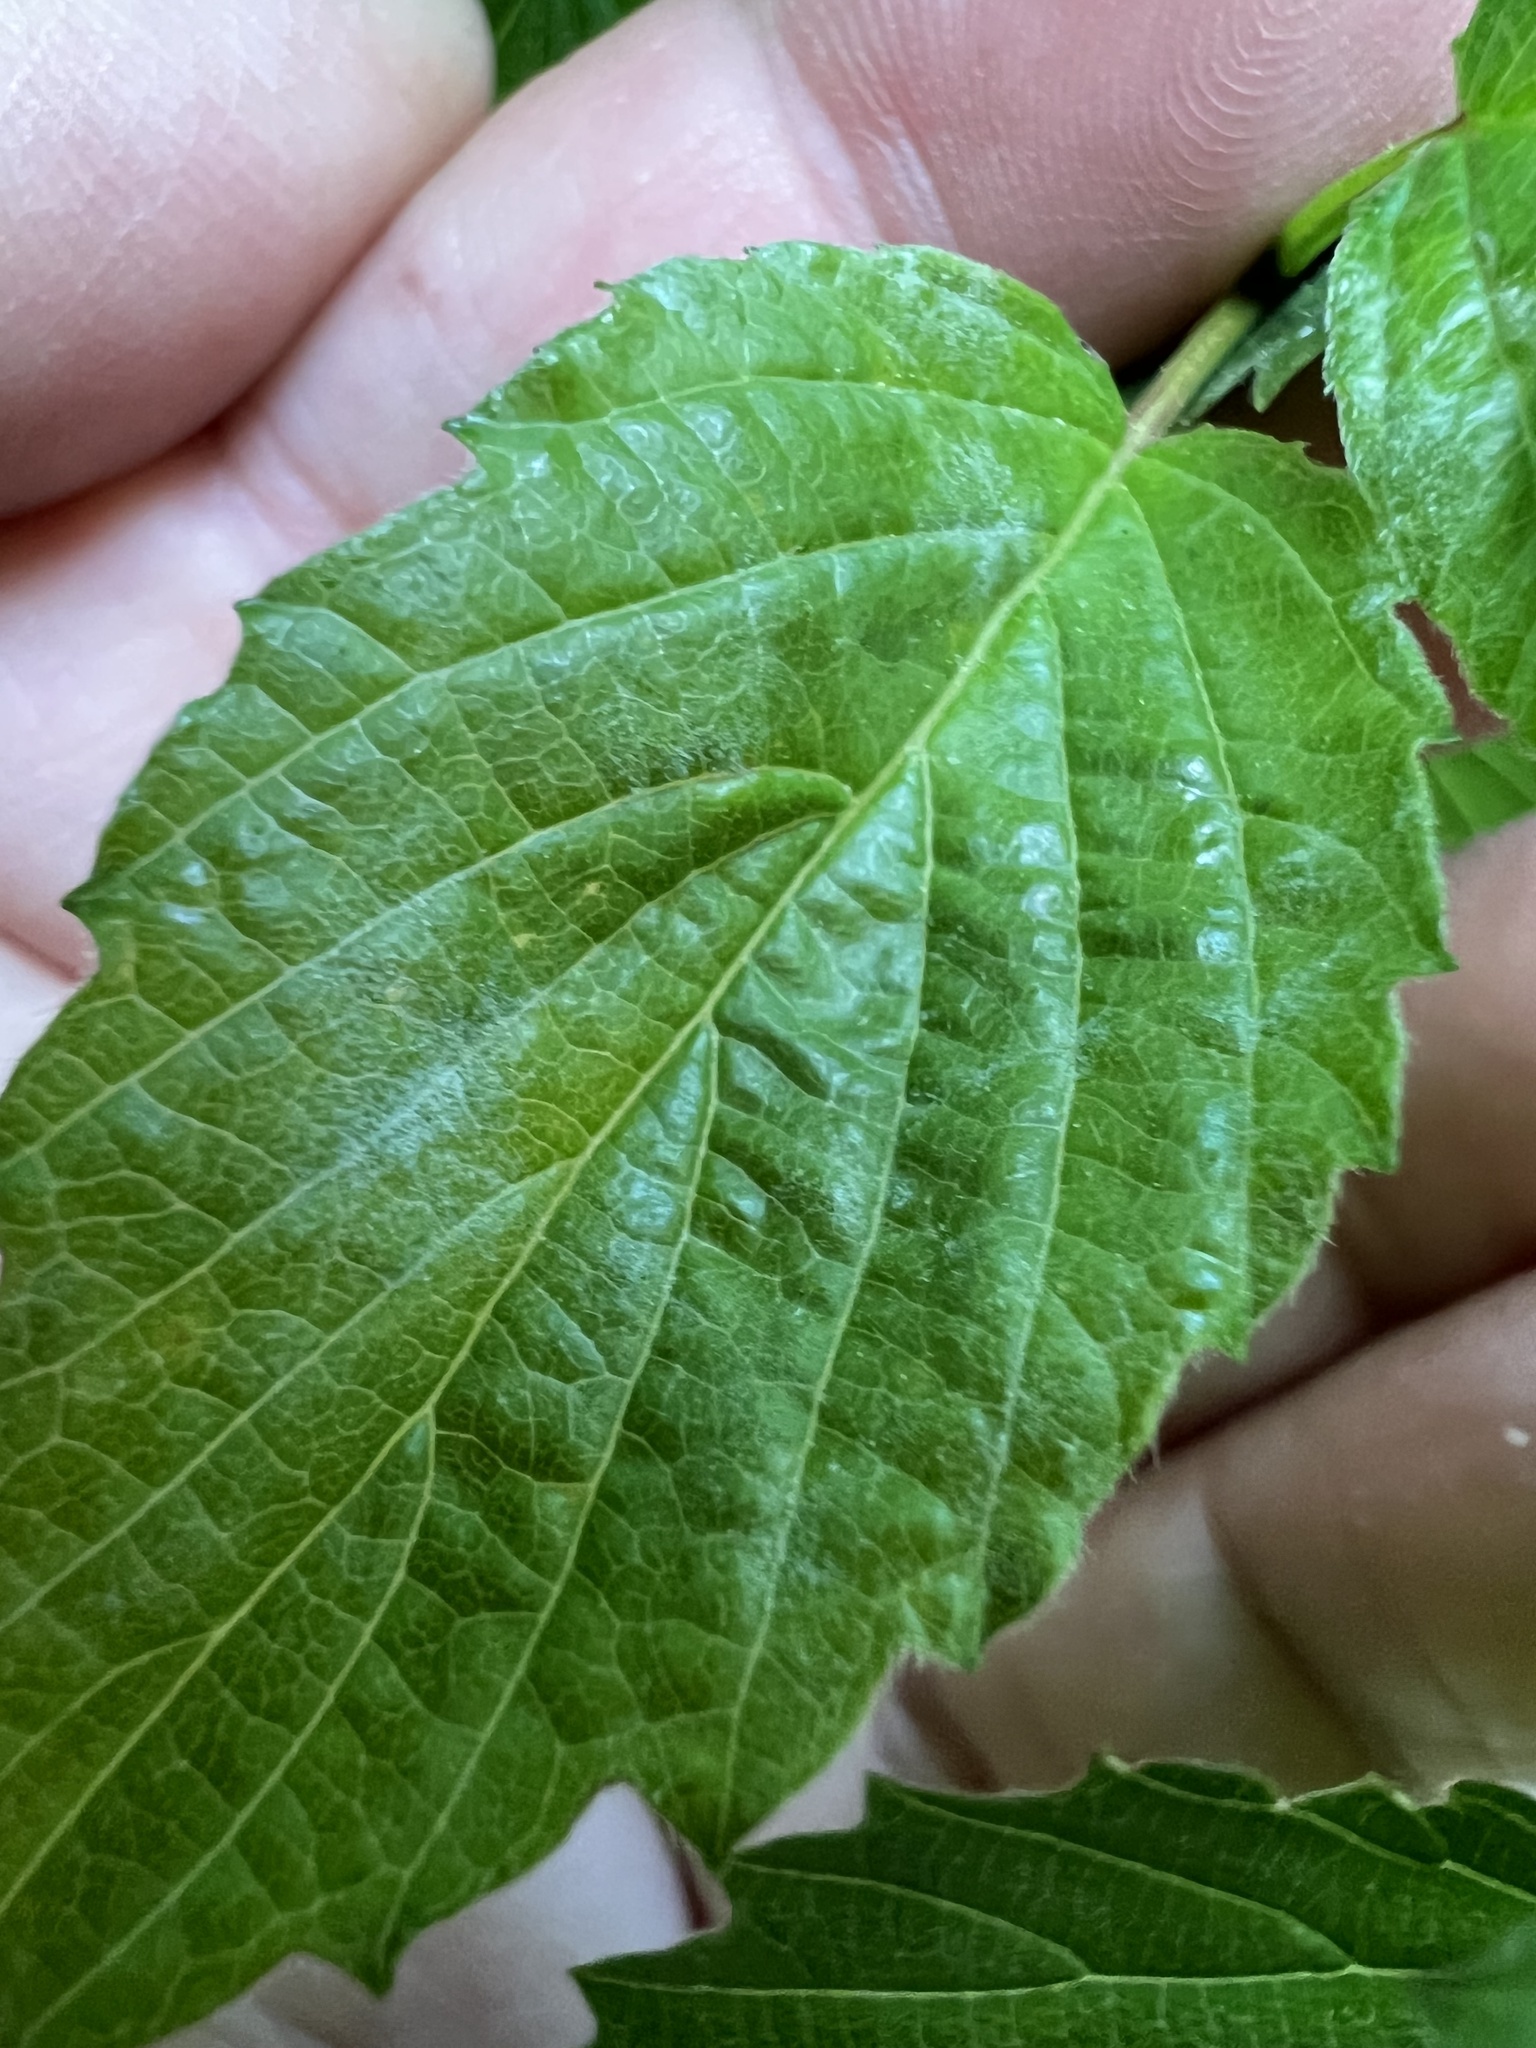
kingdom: Fungi
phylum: Ascomycota
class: Leotiomycetes
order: Helotiales
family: Erysiphaceae
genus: Erysiphe
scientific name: Erysiphe viburni
